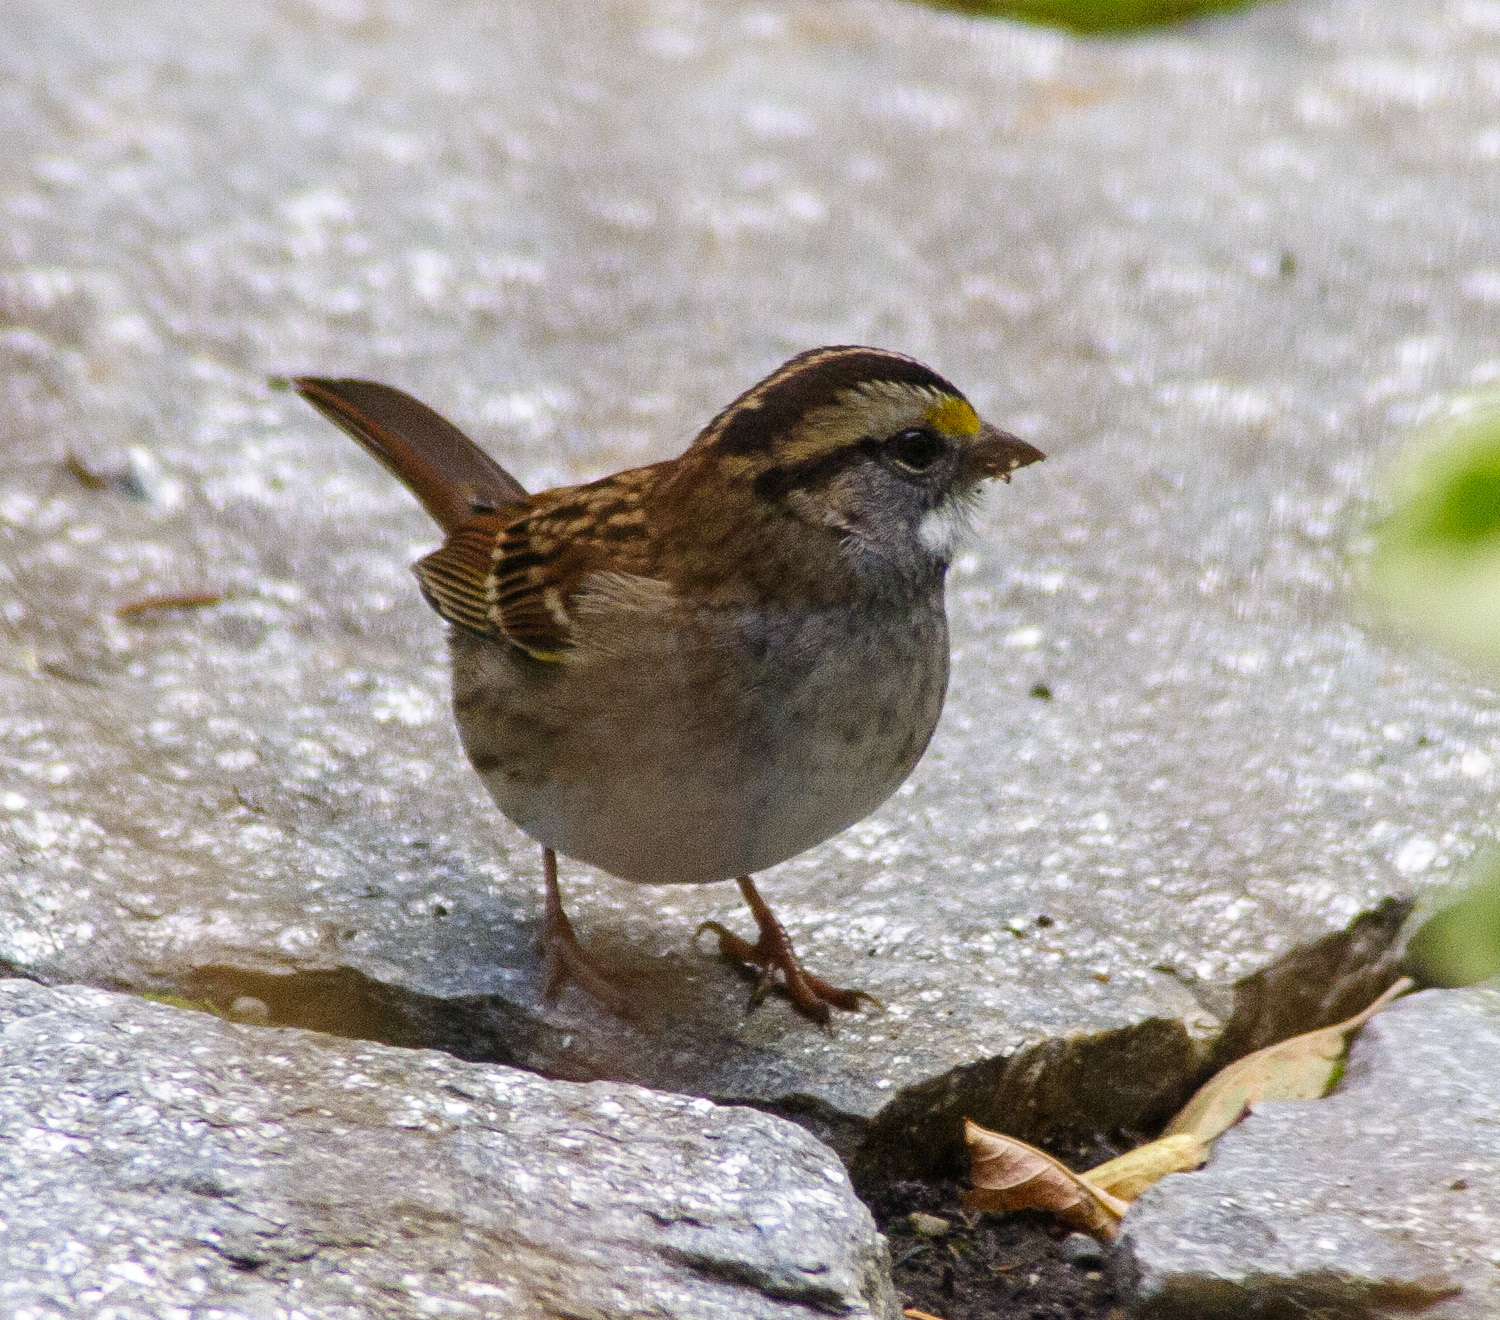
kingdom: Animalia
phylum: Chordata
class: Aves
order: Passeriformes
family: Passerellidae
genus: Zonotrichia
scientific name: Zonotrichia albicollis
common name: White-throated sparrow
